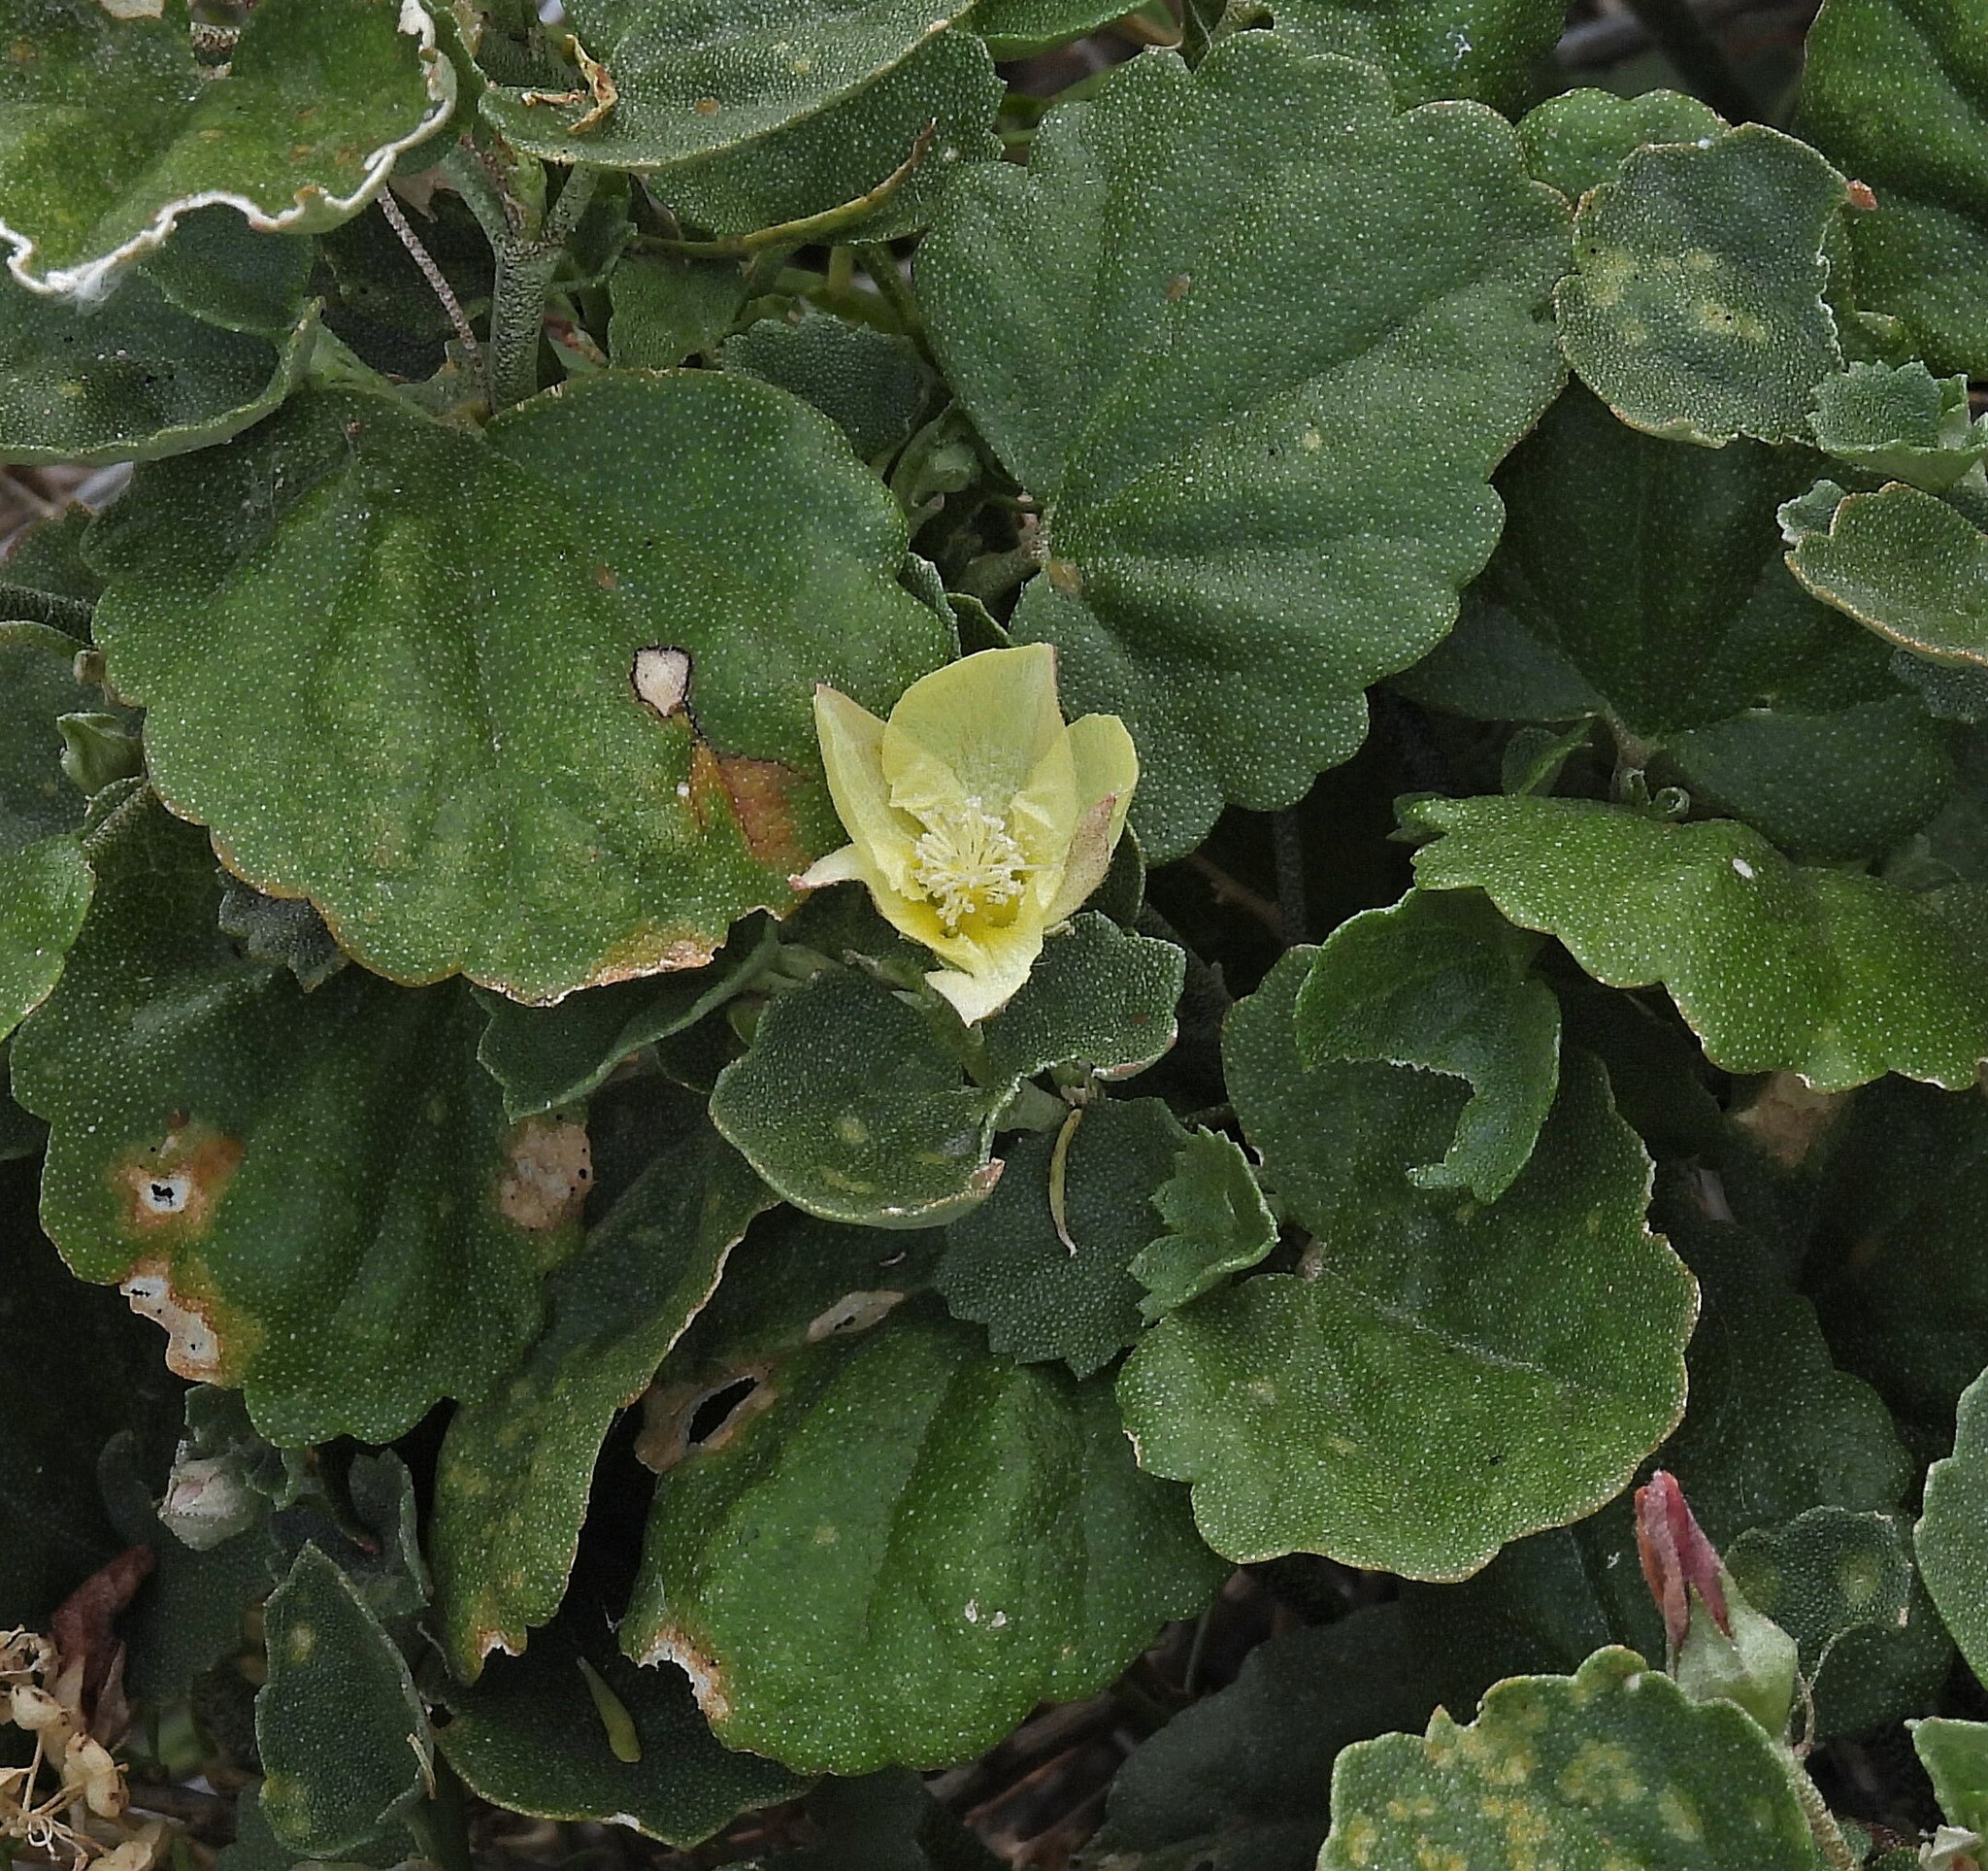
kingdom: Plantae
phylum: Tracheophyta
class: Magnoliopsida
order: Malvales
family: Malvaceae
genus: Malvella
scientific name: Malvella leprosa
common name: Alkali-mallow
